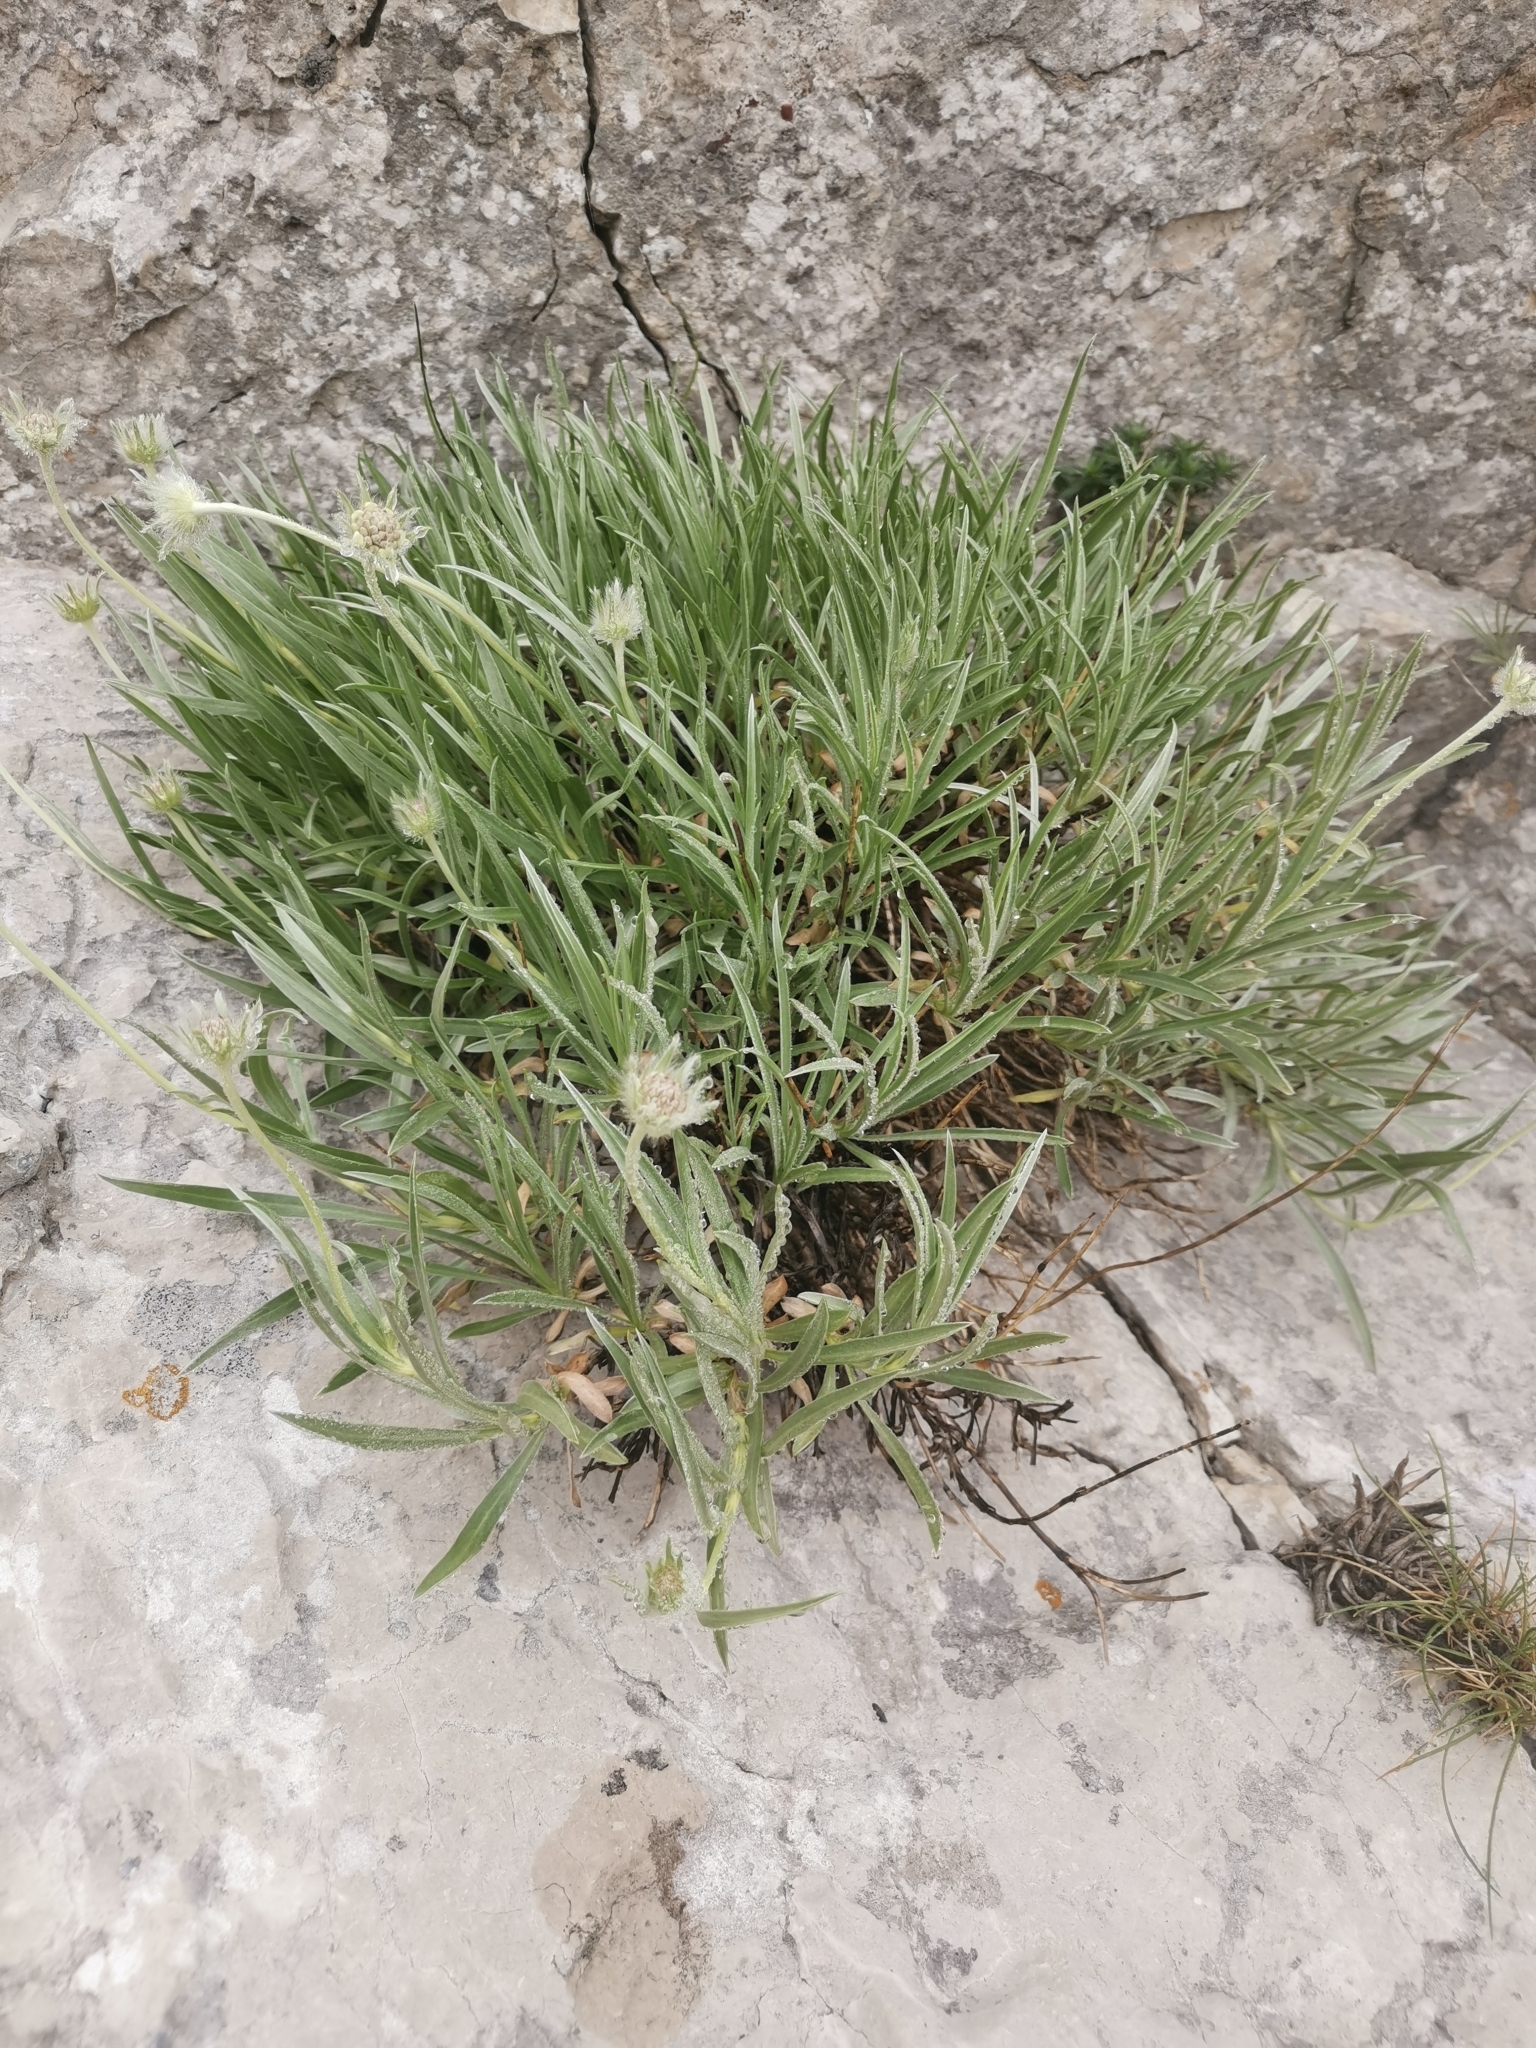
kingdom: Plantae
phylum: Tracheophyta
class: Magnoliopsida
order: Dipsacales
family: Caprifoliaceae
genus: Lomelosia
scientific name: Lomelosia graminifolia
